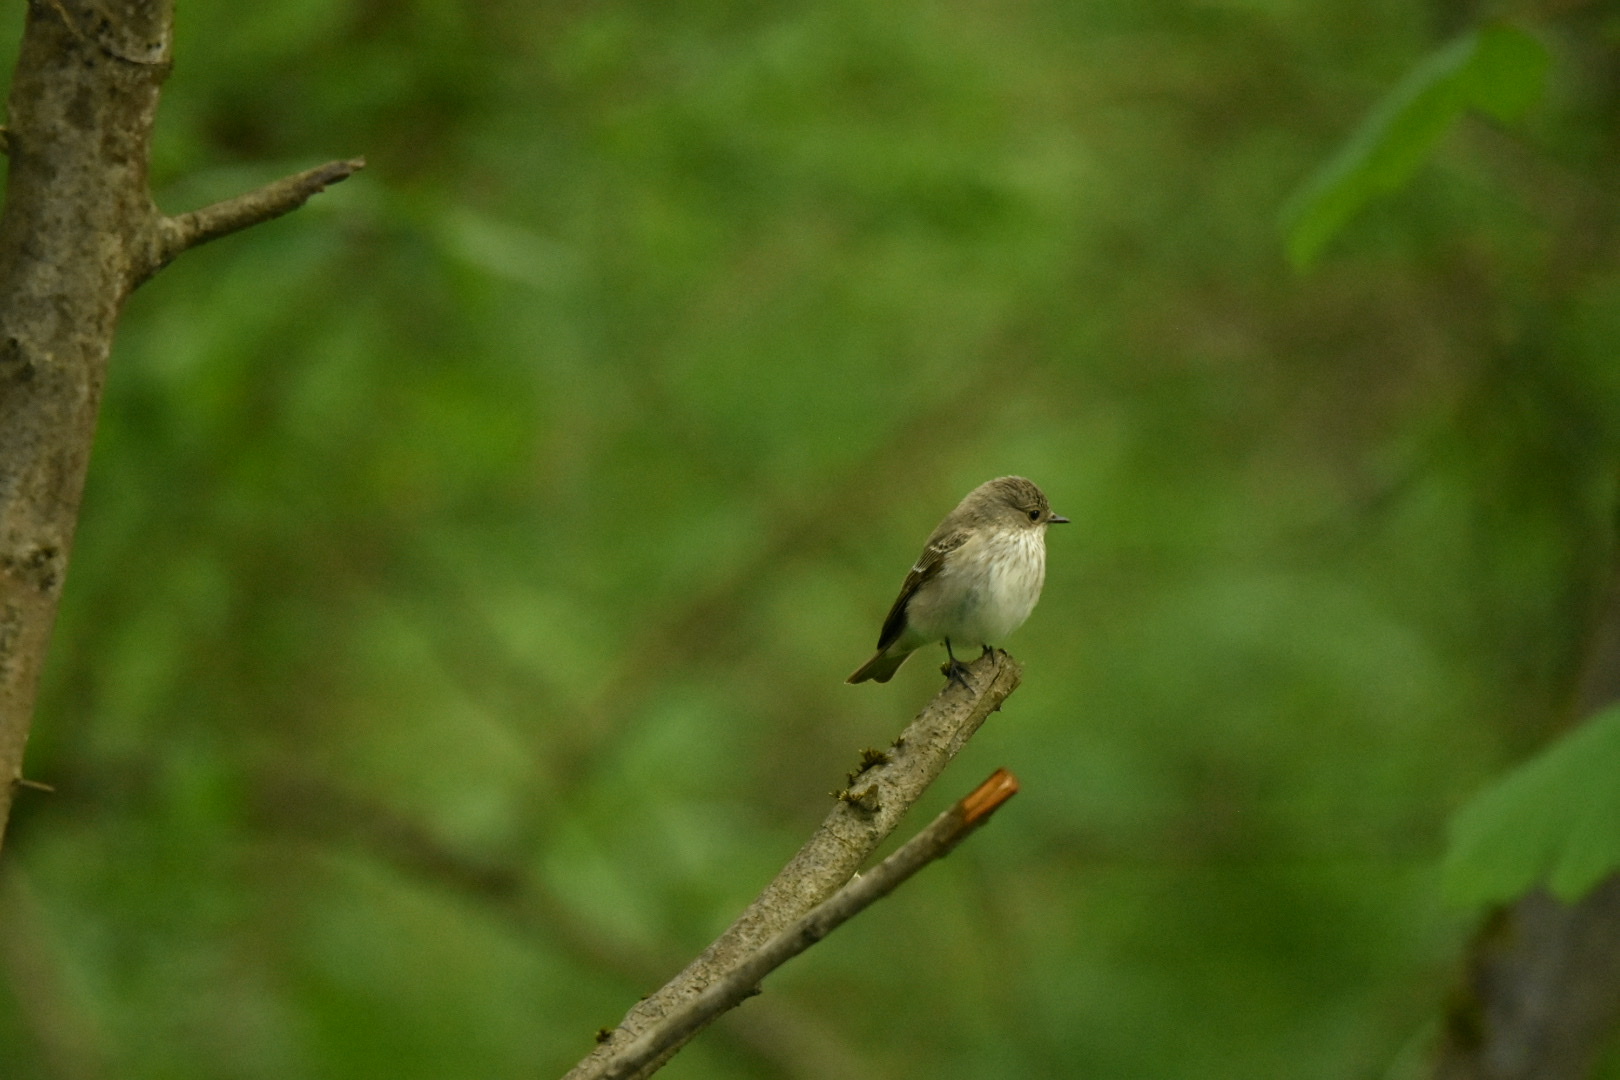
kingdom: Animalia
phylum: Chordata
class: Aves
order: Passeriformes
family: Muscicapidae
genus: Muscicapa
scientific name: Muscicapa striata
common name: Spotted flycatcher
